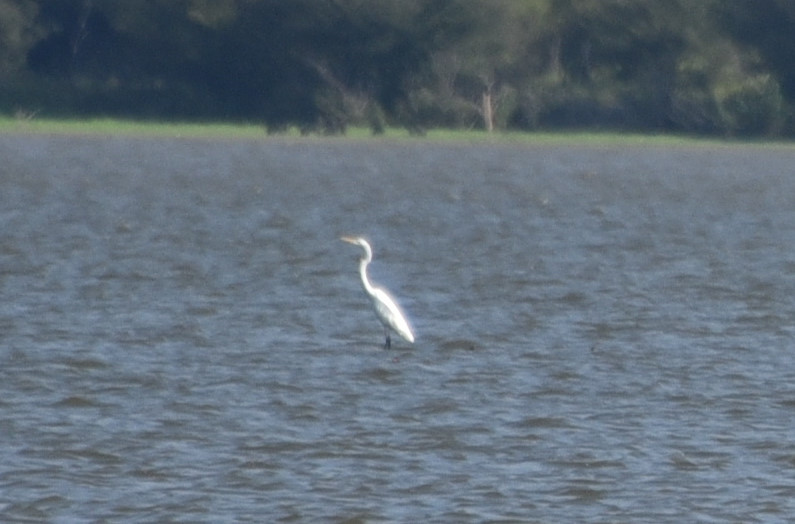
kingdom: Animalia
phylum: Chordata
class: Aves
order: Pelecaniformes
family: Ardeidae
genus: Ardea
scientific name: Ardea alba
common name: Great egret
